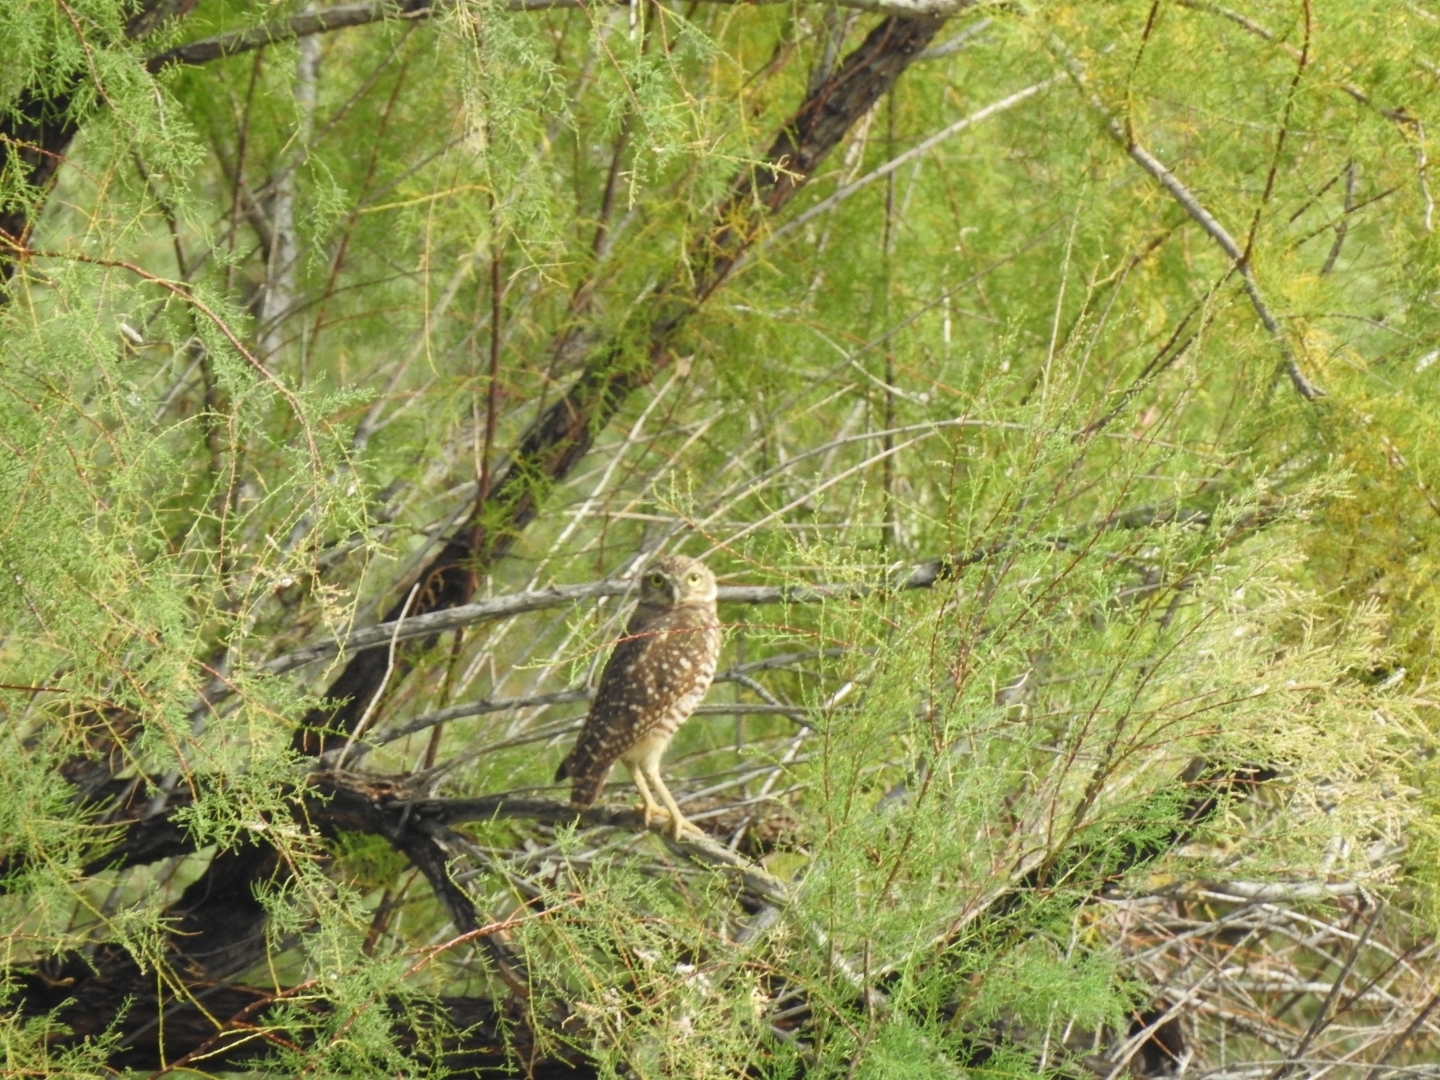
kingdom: Animalia
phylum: Chordata
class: Aves
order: Strigiformes
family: Strigidae
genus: Athene
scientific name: Athene cunicularia
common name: Burrowing owl
